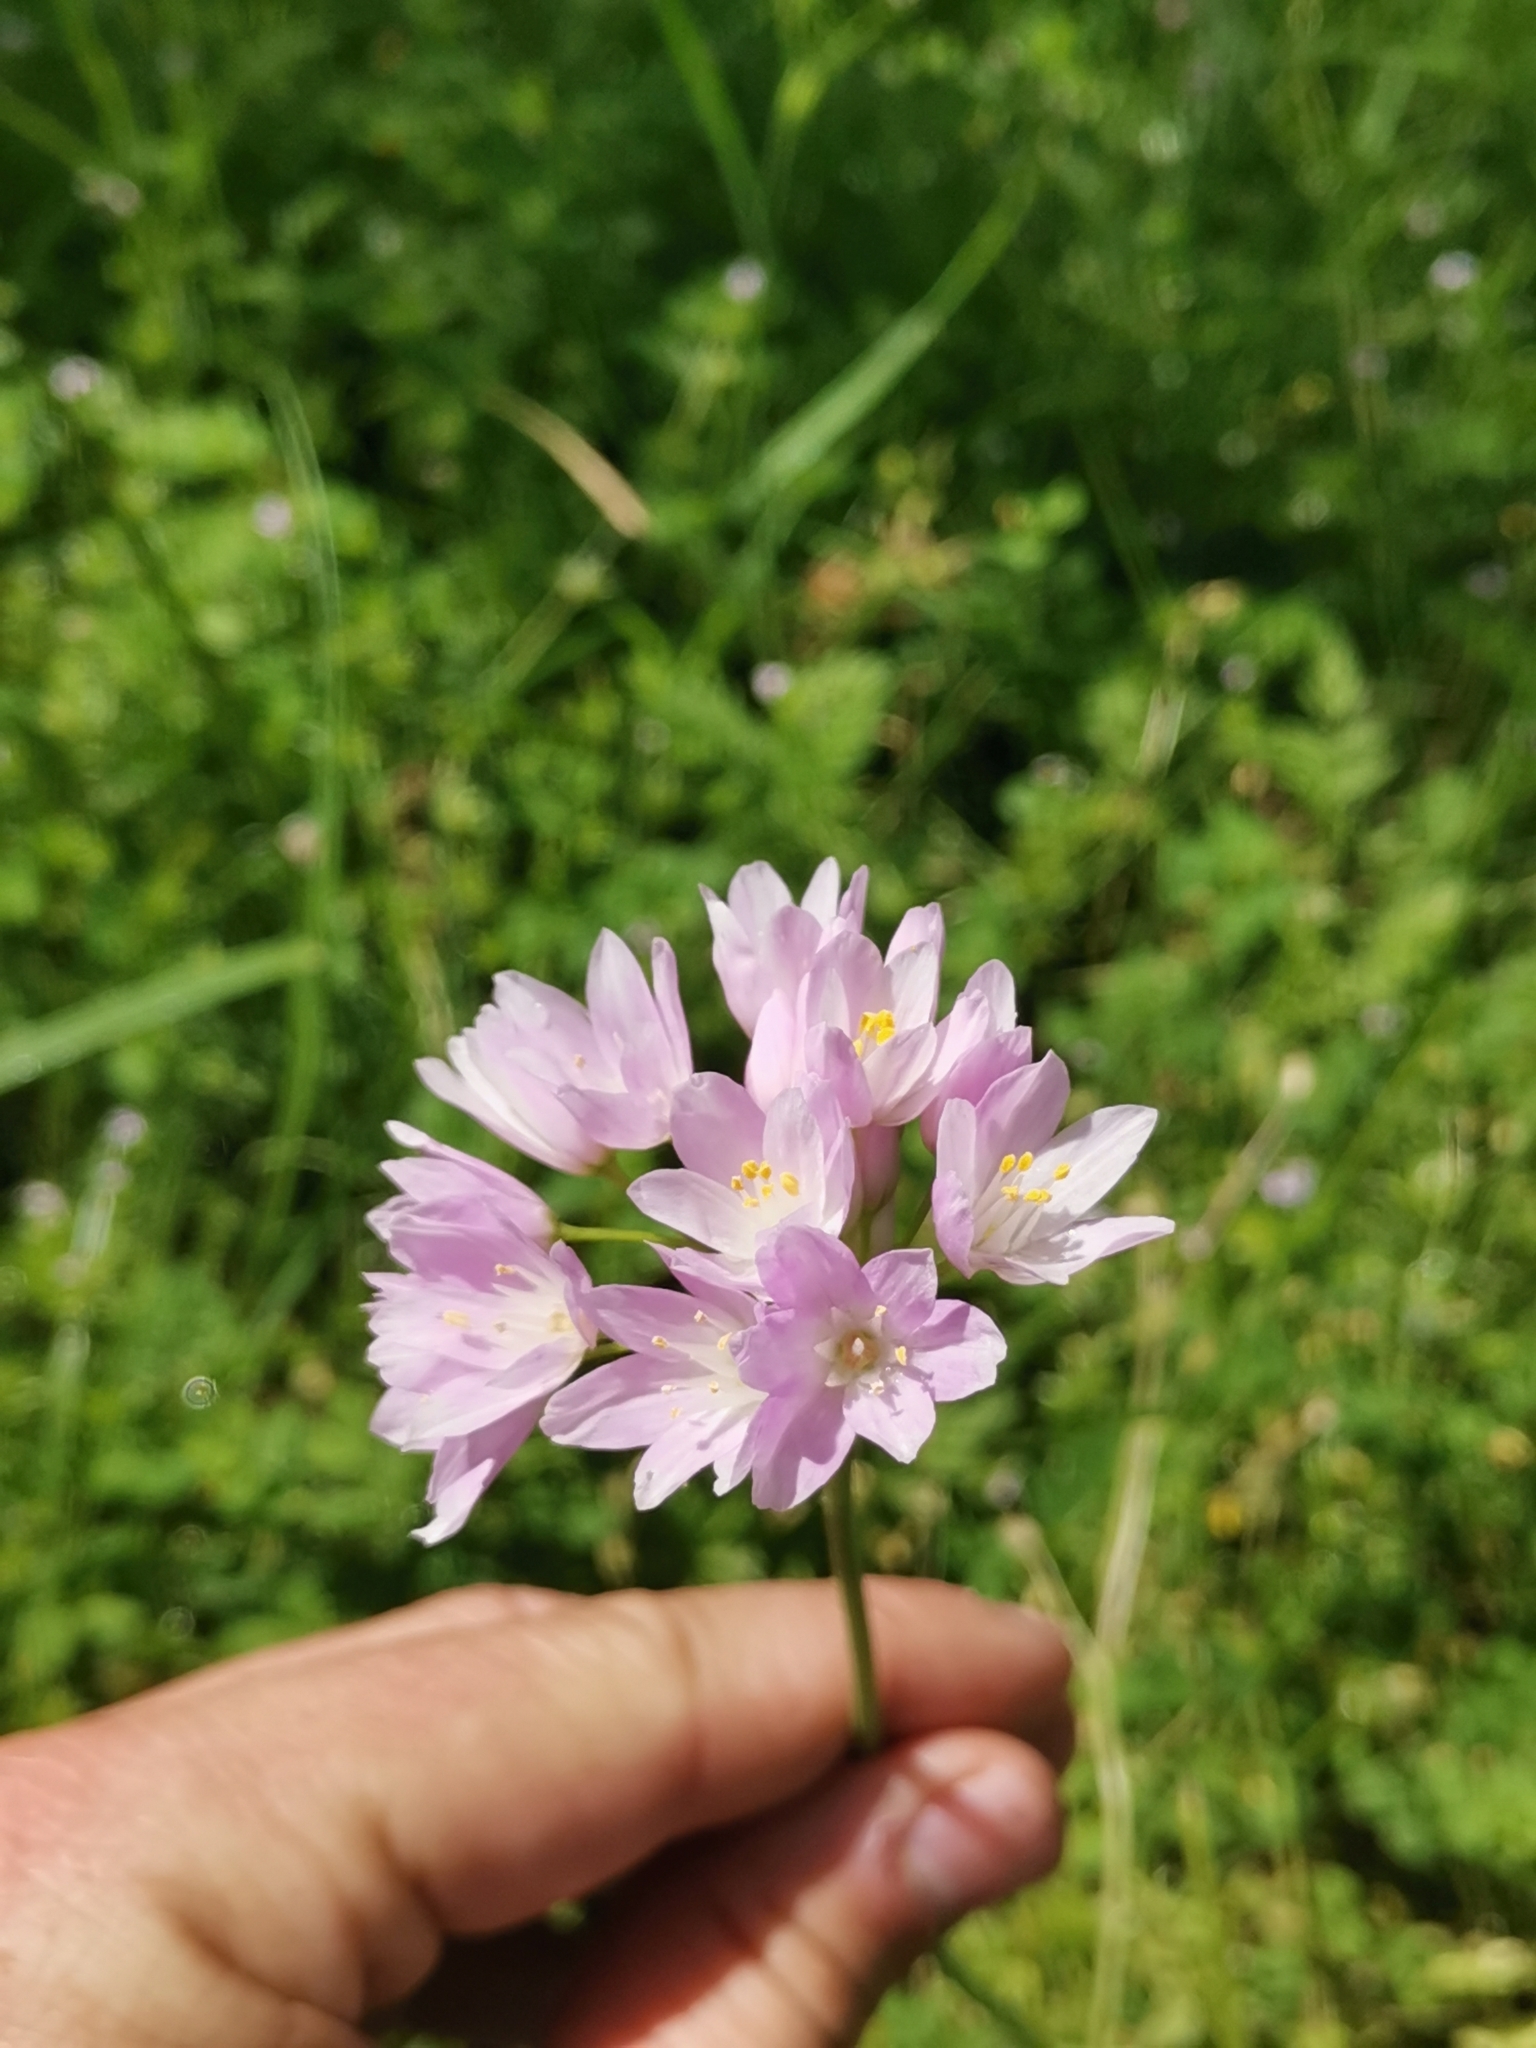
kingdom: Plantae
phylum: Tracheophyta
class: Liliopsida
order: Asparagales
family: Amaryllidaceae
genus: Allium
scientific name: Allium roseum
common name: Rosy garlic
